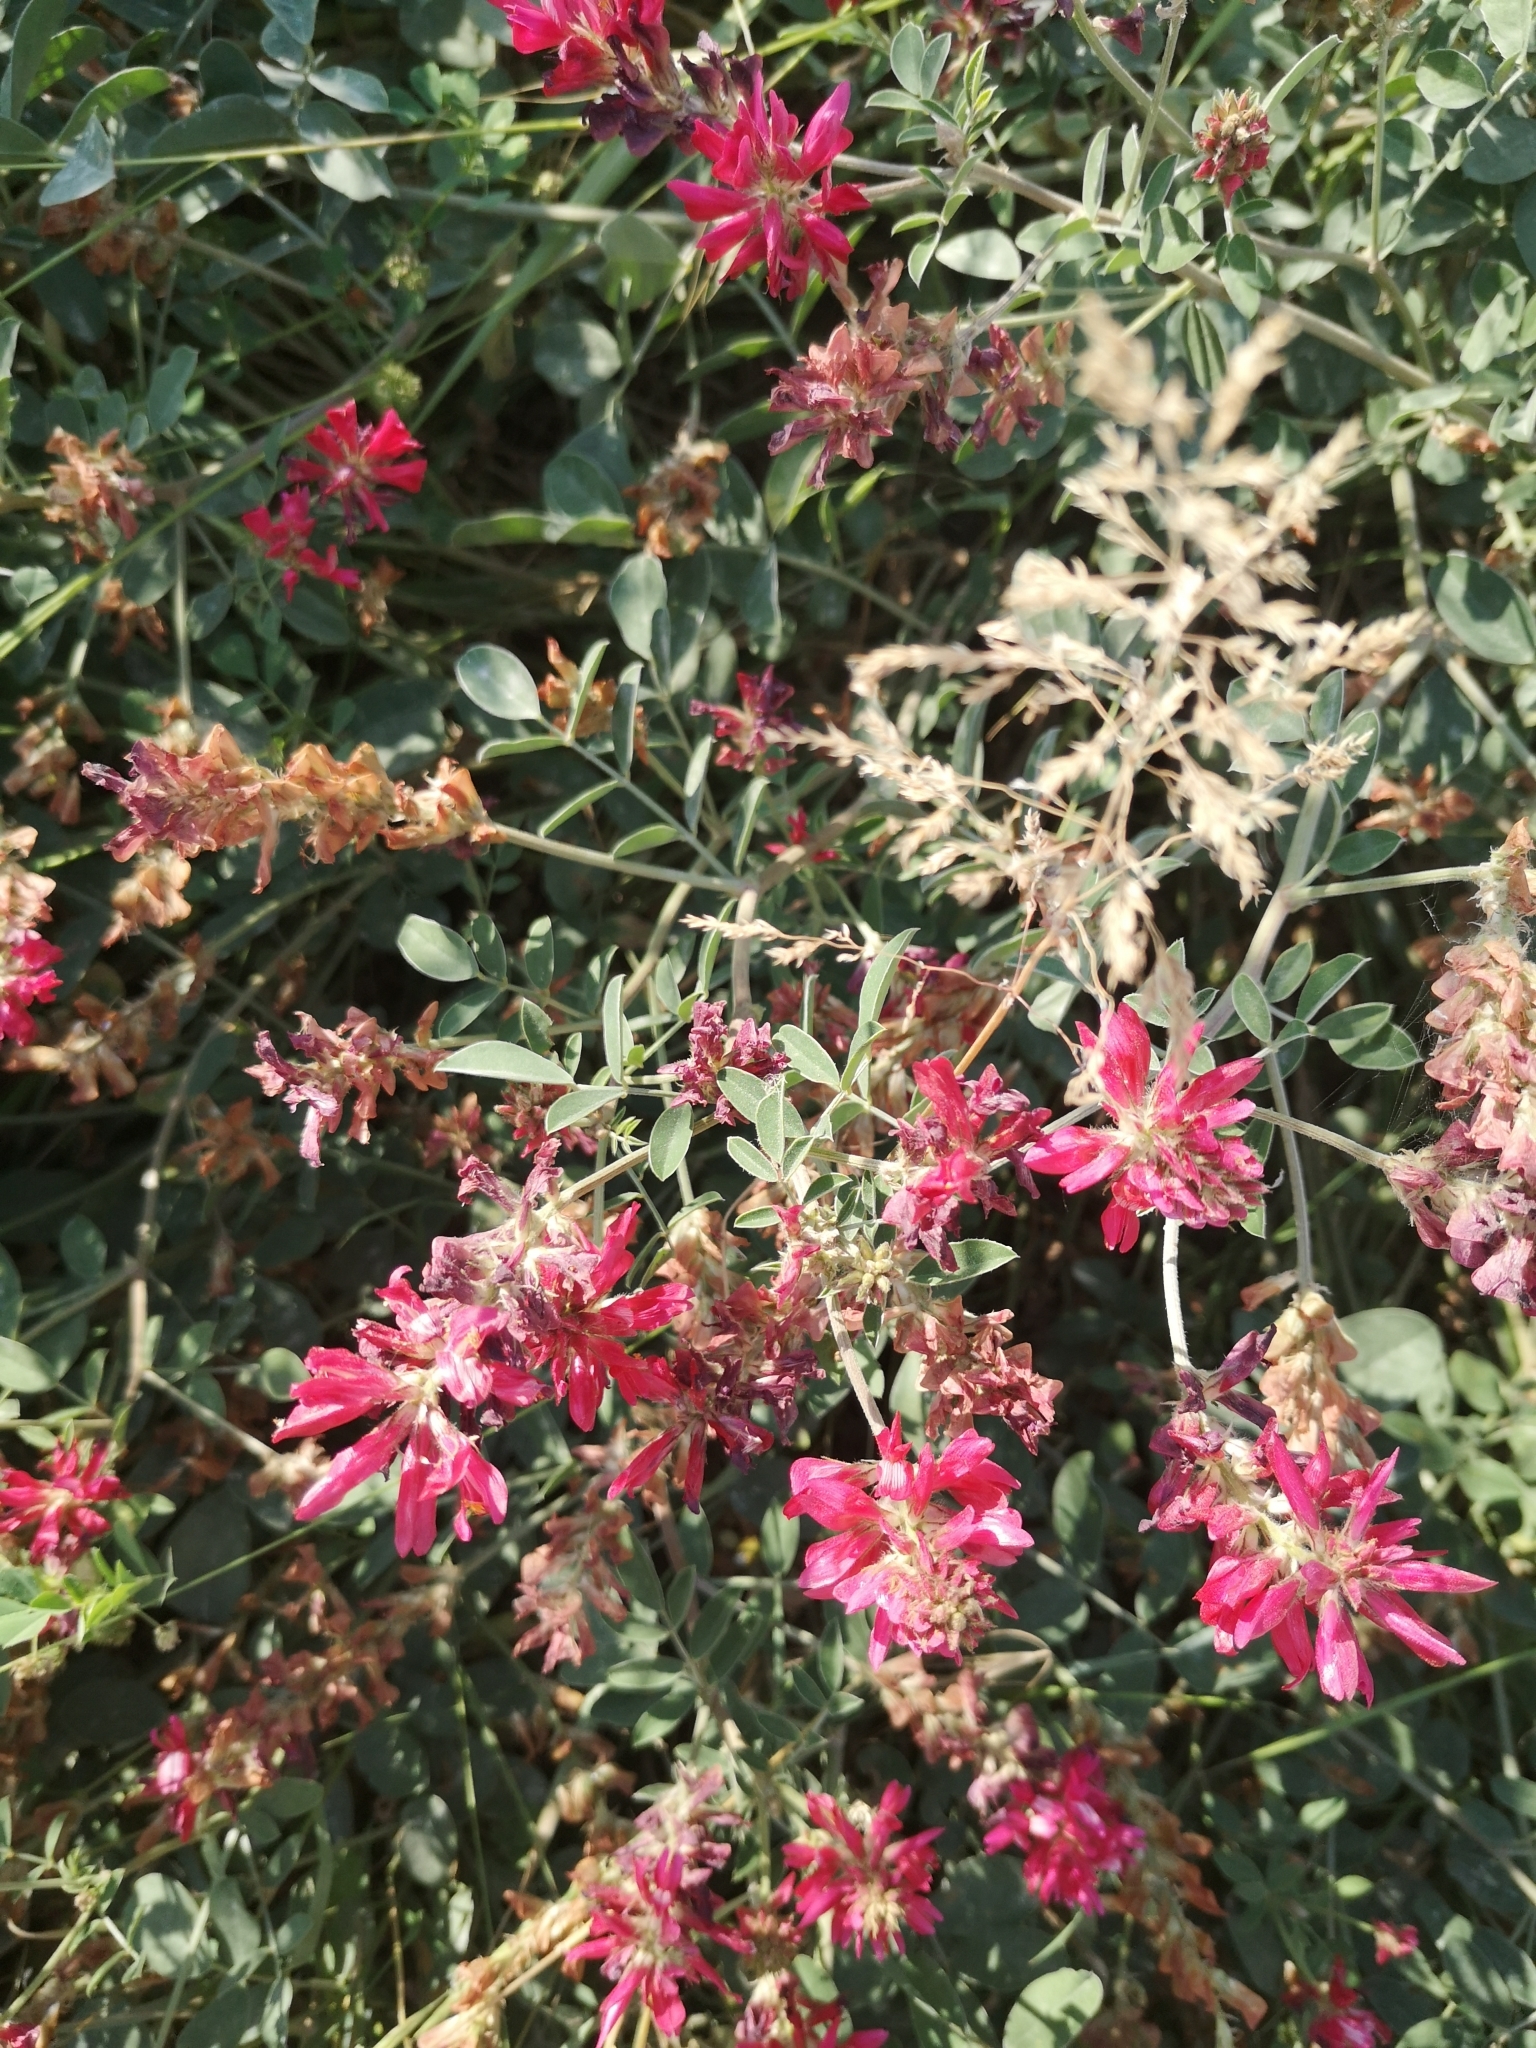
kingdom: Plantae
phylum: Tracheophyta
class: Magnoliopsida
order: Fabales
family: Fabaceae
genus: Sulla
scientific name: Sulla coronaria
